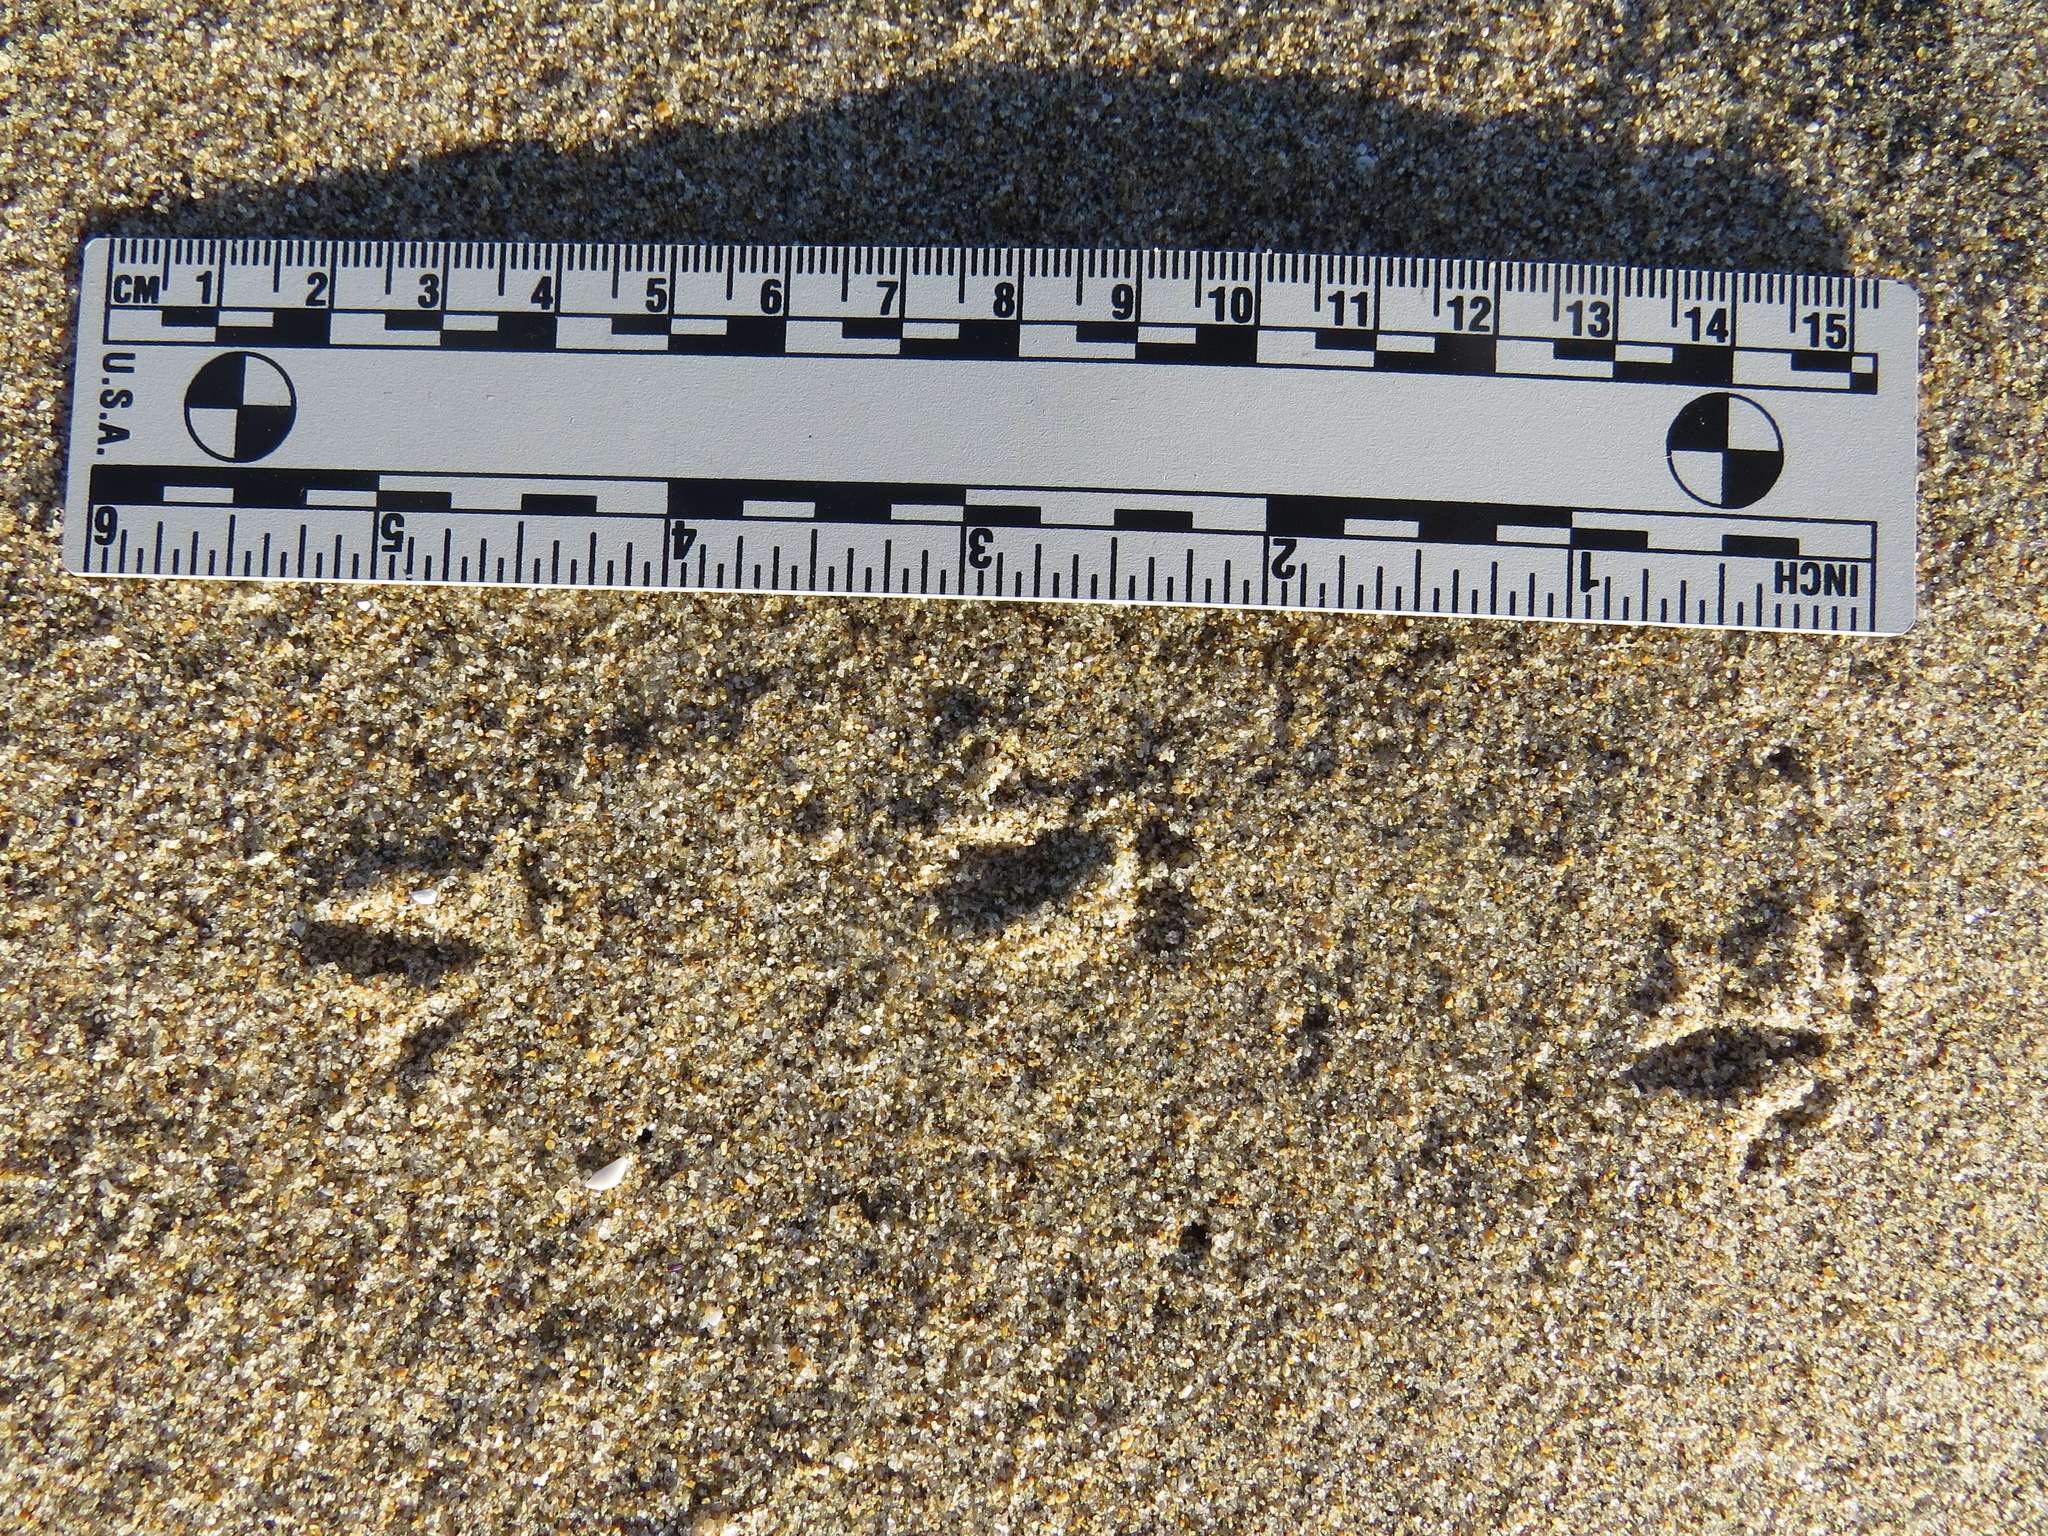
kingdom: Animalia
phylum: Chordata
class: Aves
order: Charadriiformes
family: Charadriidae
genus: Anarhynchus
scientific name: Anarhynchus
